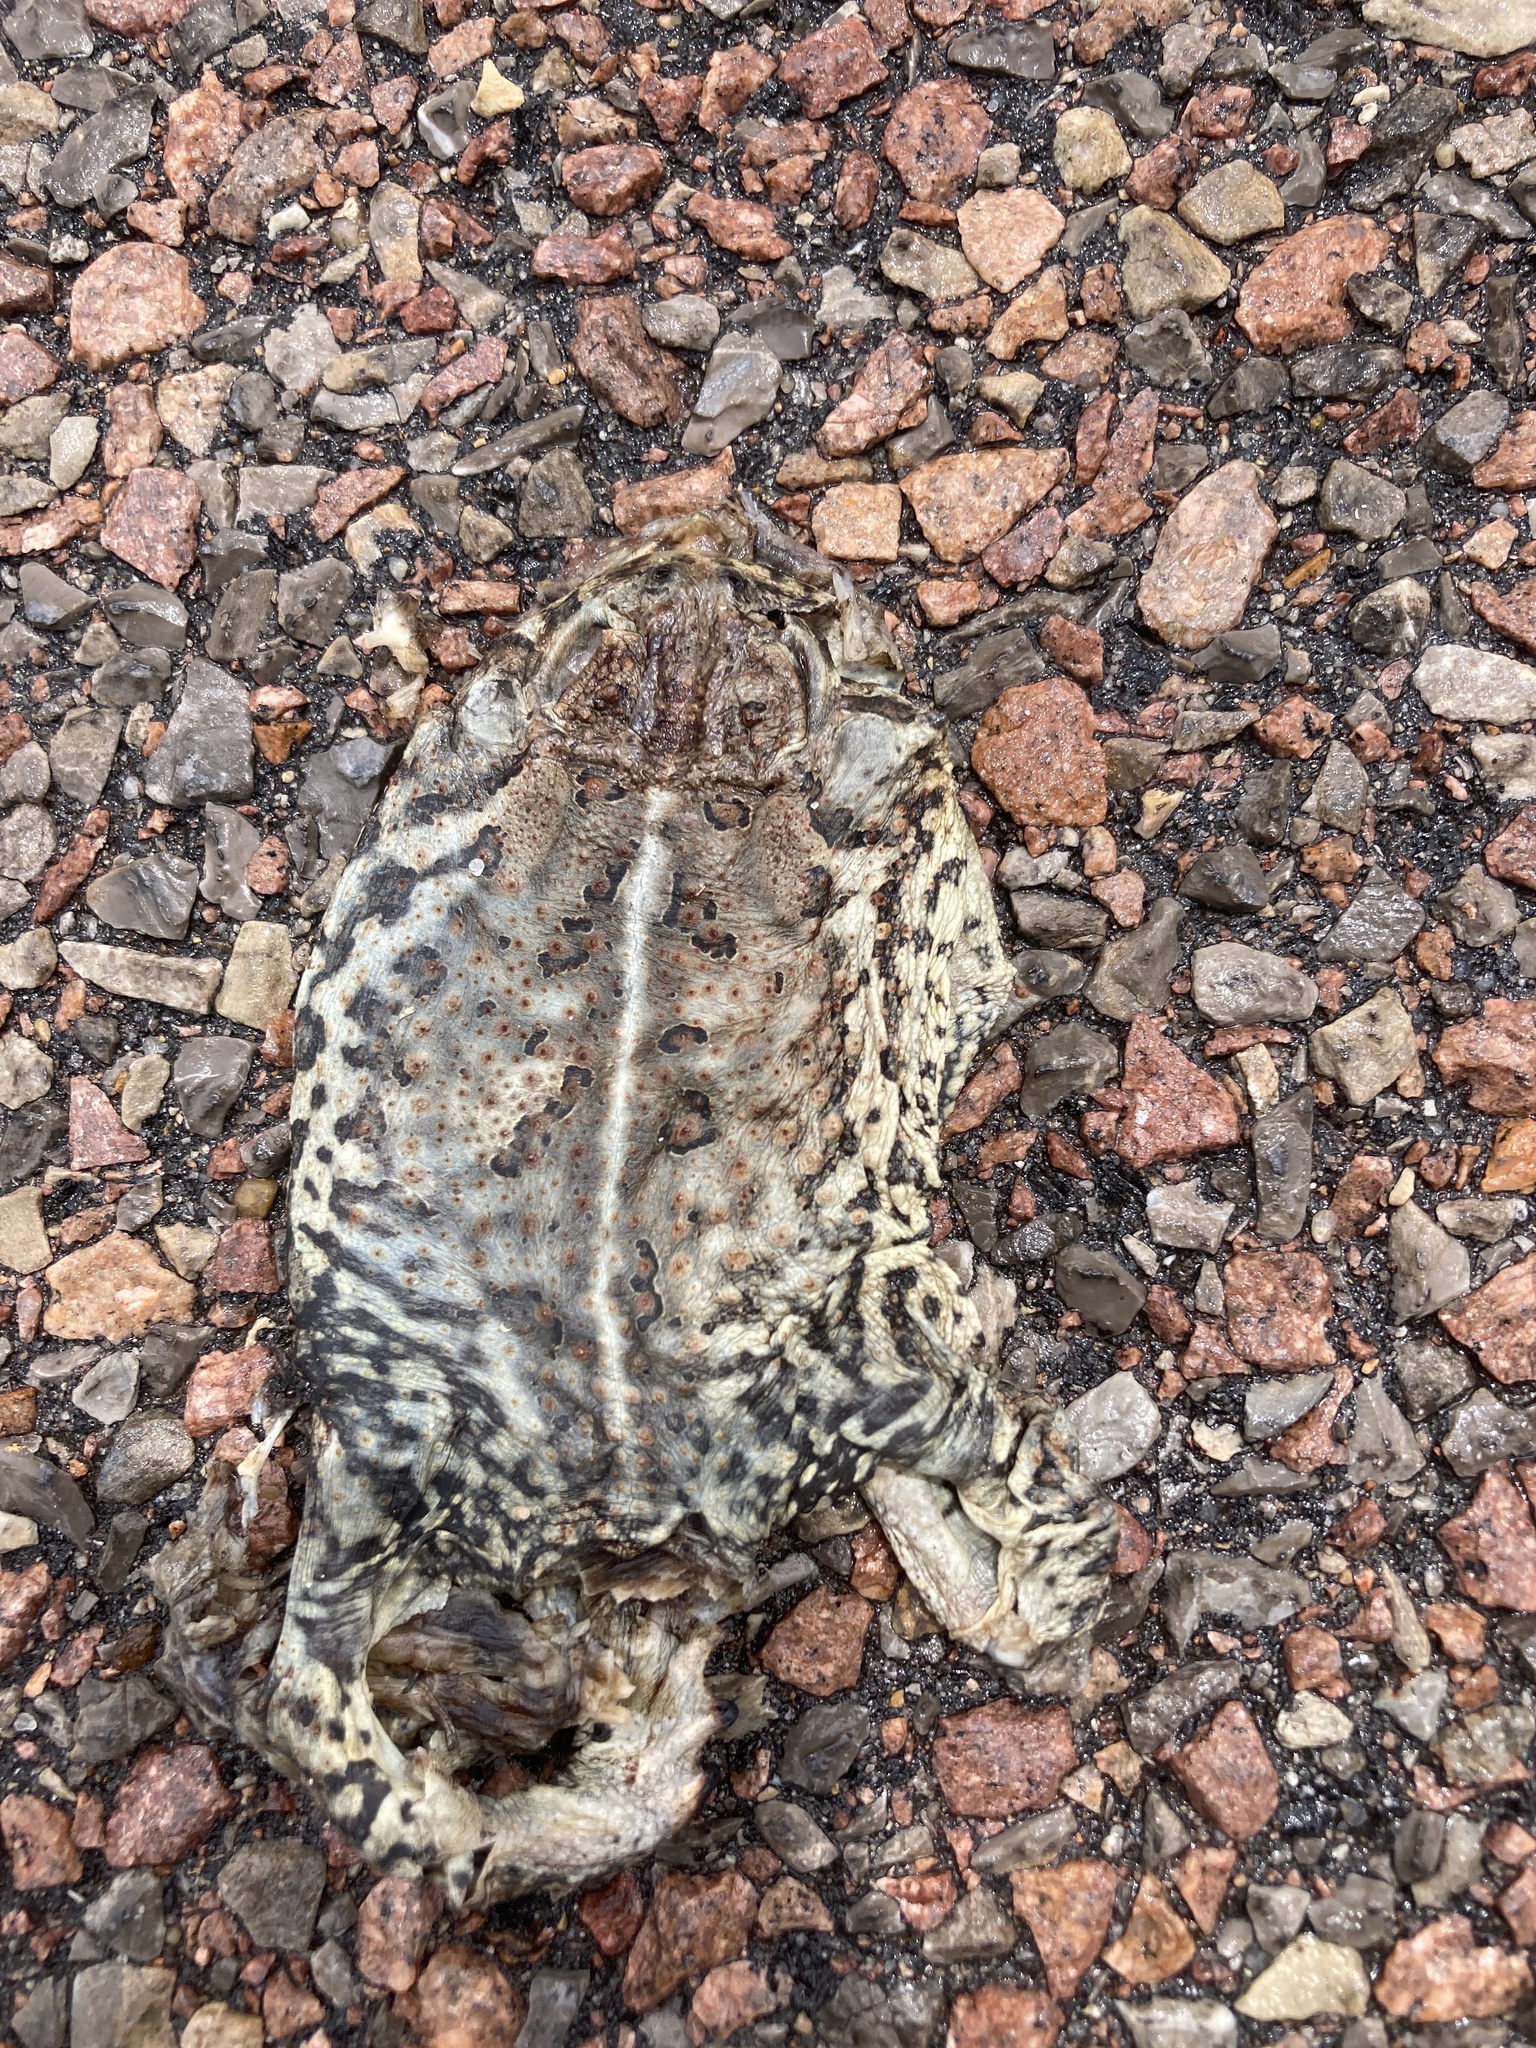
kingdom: Animalia
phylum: Chordata
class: Amphibia
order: Anura
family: Bufonidae
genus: Anaxyrus
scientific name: Anaxyrus woodhousii
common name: Woodhouse's toad
